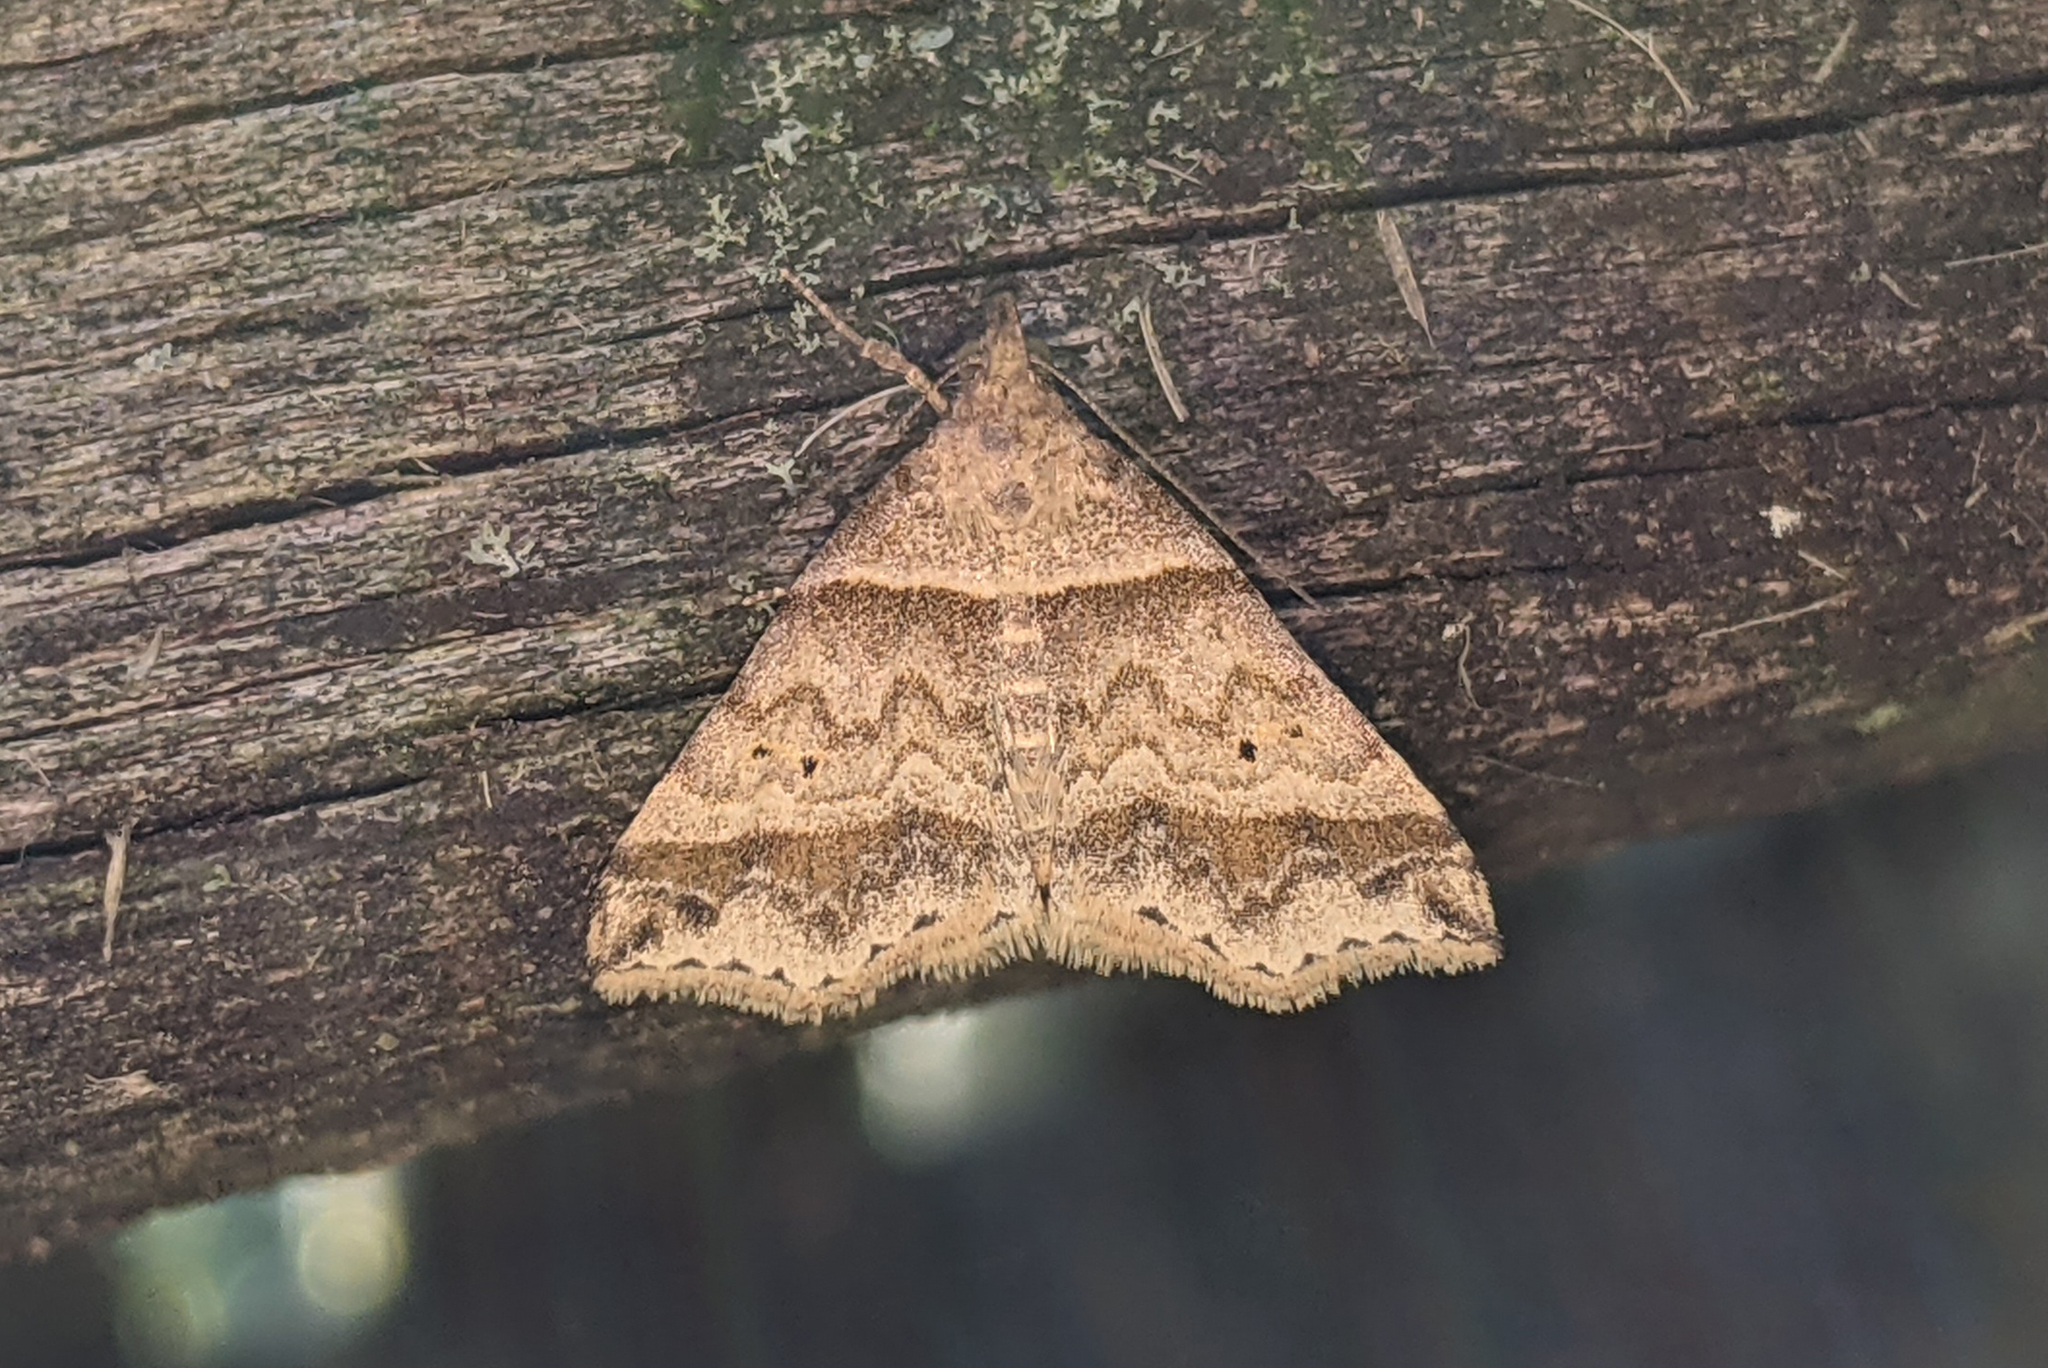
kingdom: Animalia
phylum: Arthropoda
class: Insecta
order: Lepidoptera
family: Erebidae
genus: Phaeolita
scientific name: Phaeolita pyramusalis
